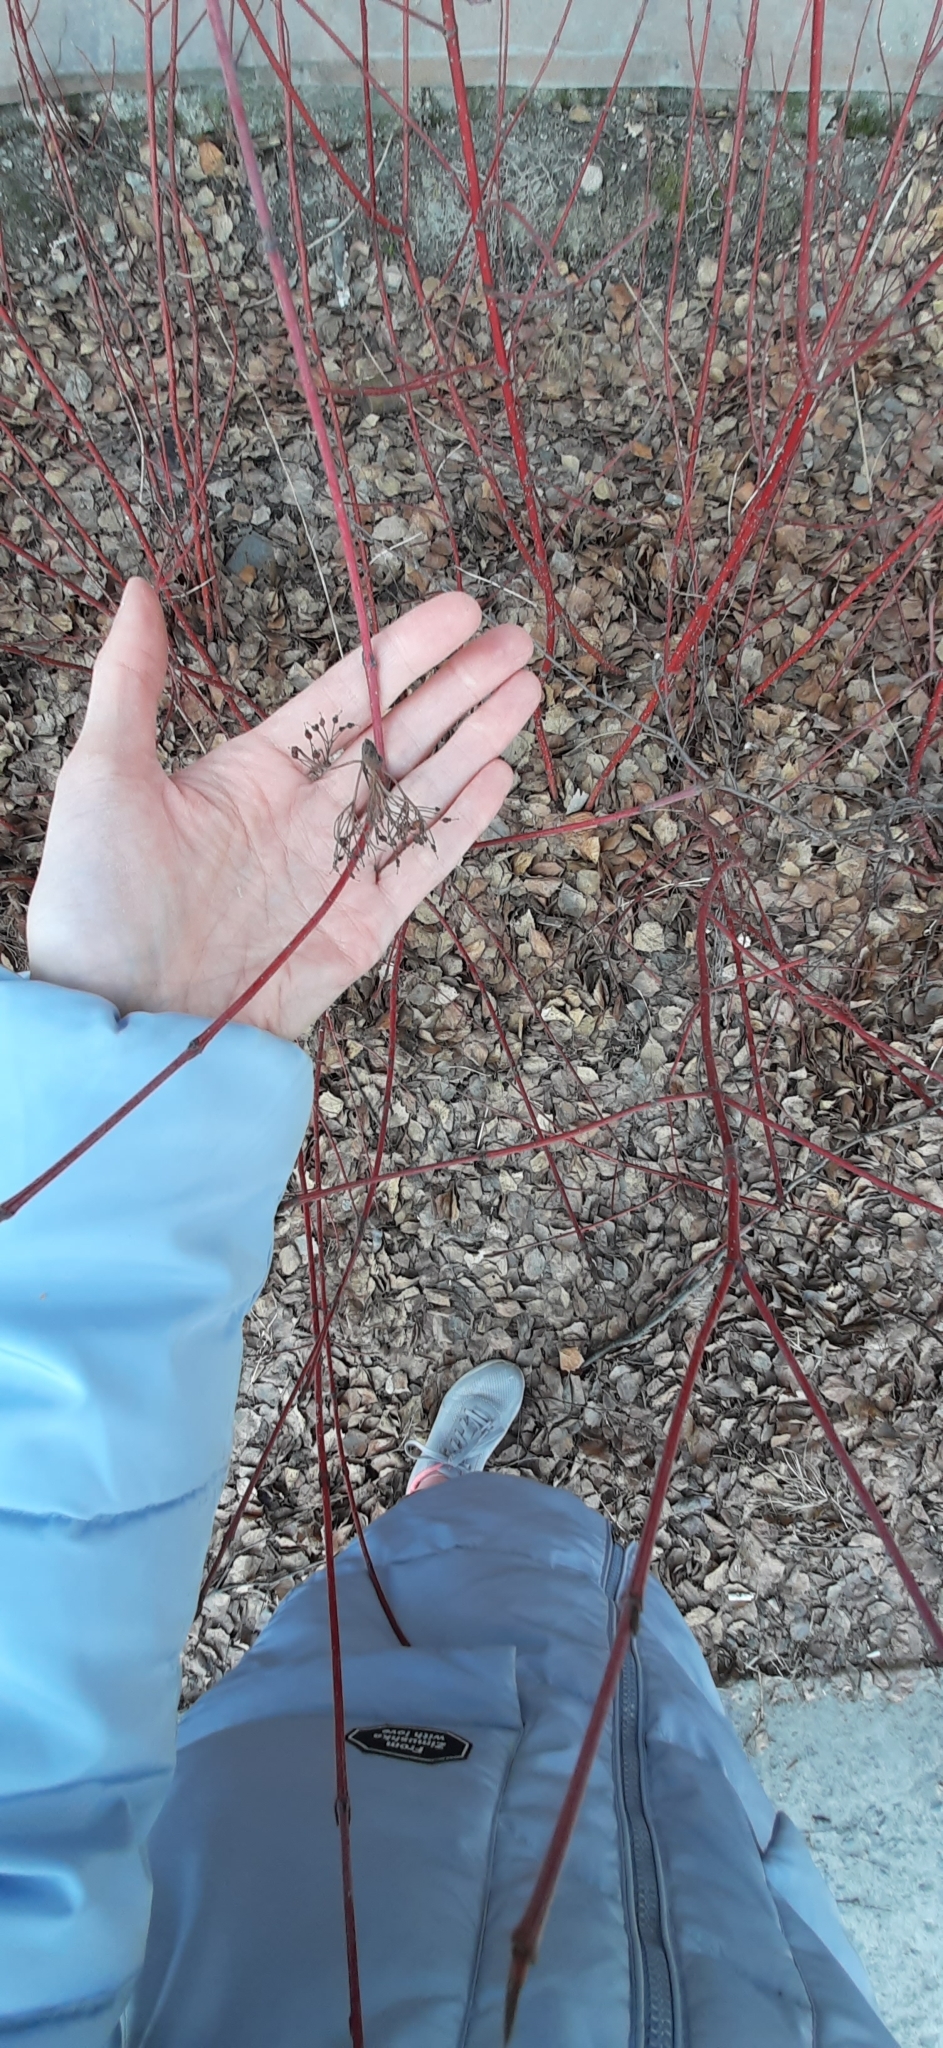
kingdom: Plantae
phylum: Tracheophyta
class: Magnoliopsida
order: Cornales
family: Cornaceae
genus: Cornus
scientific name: Cornus alba
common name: White dogwood
